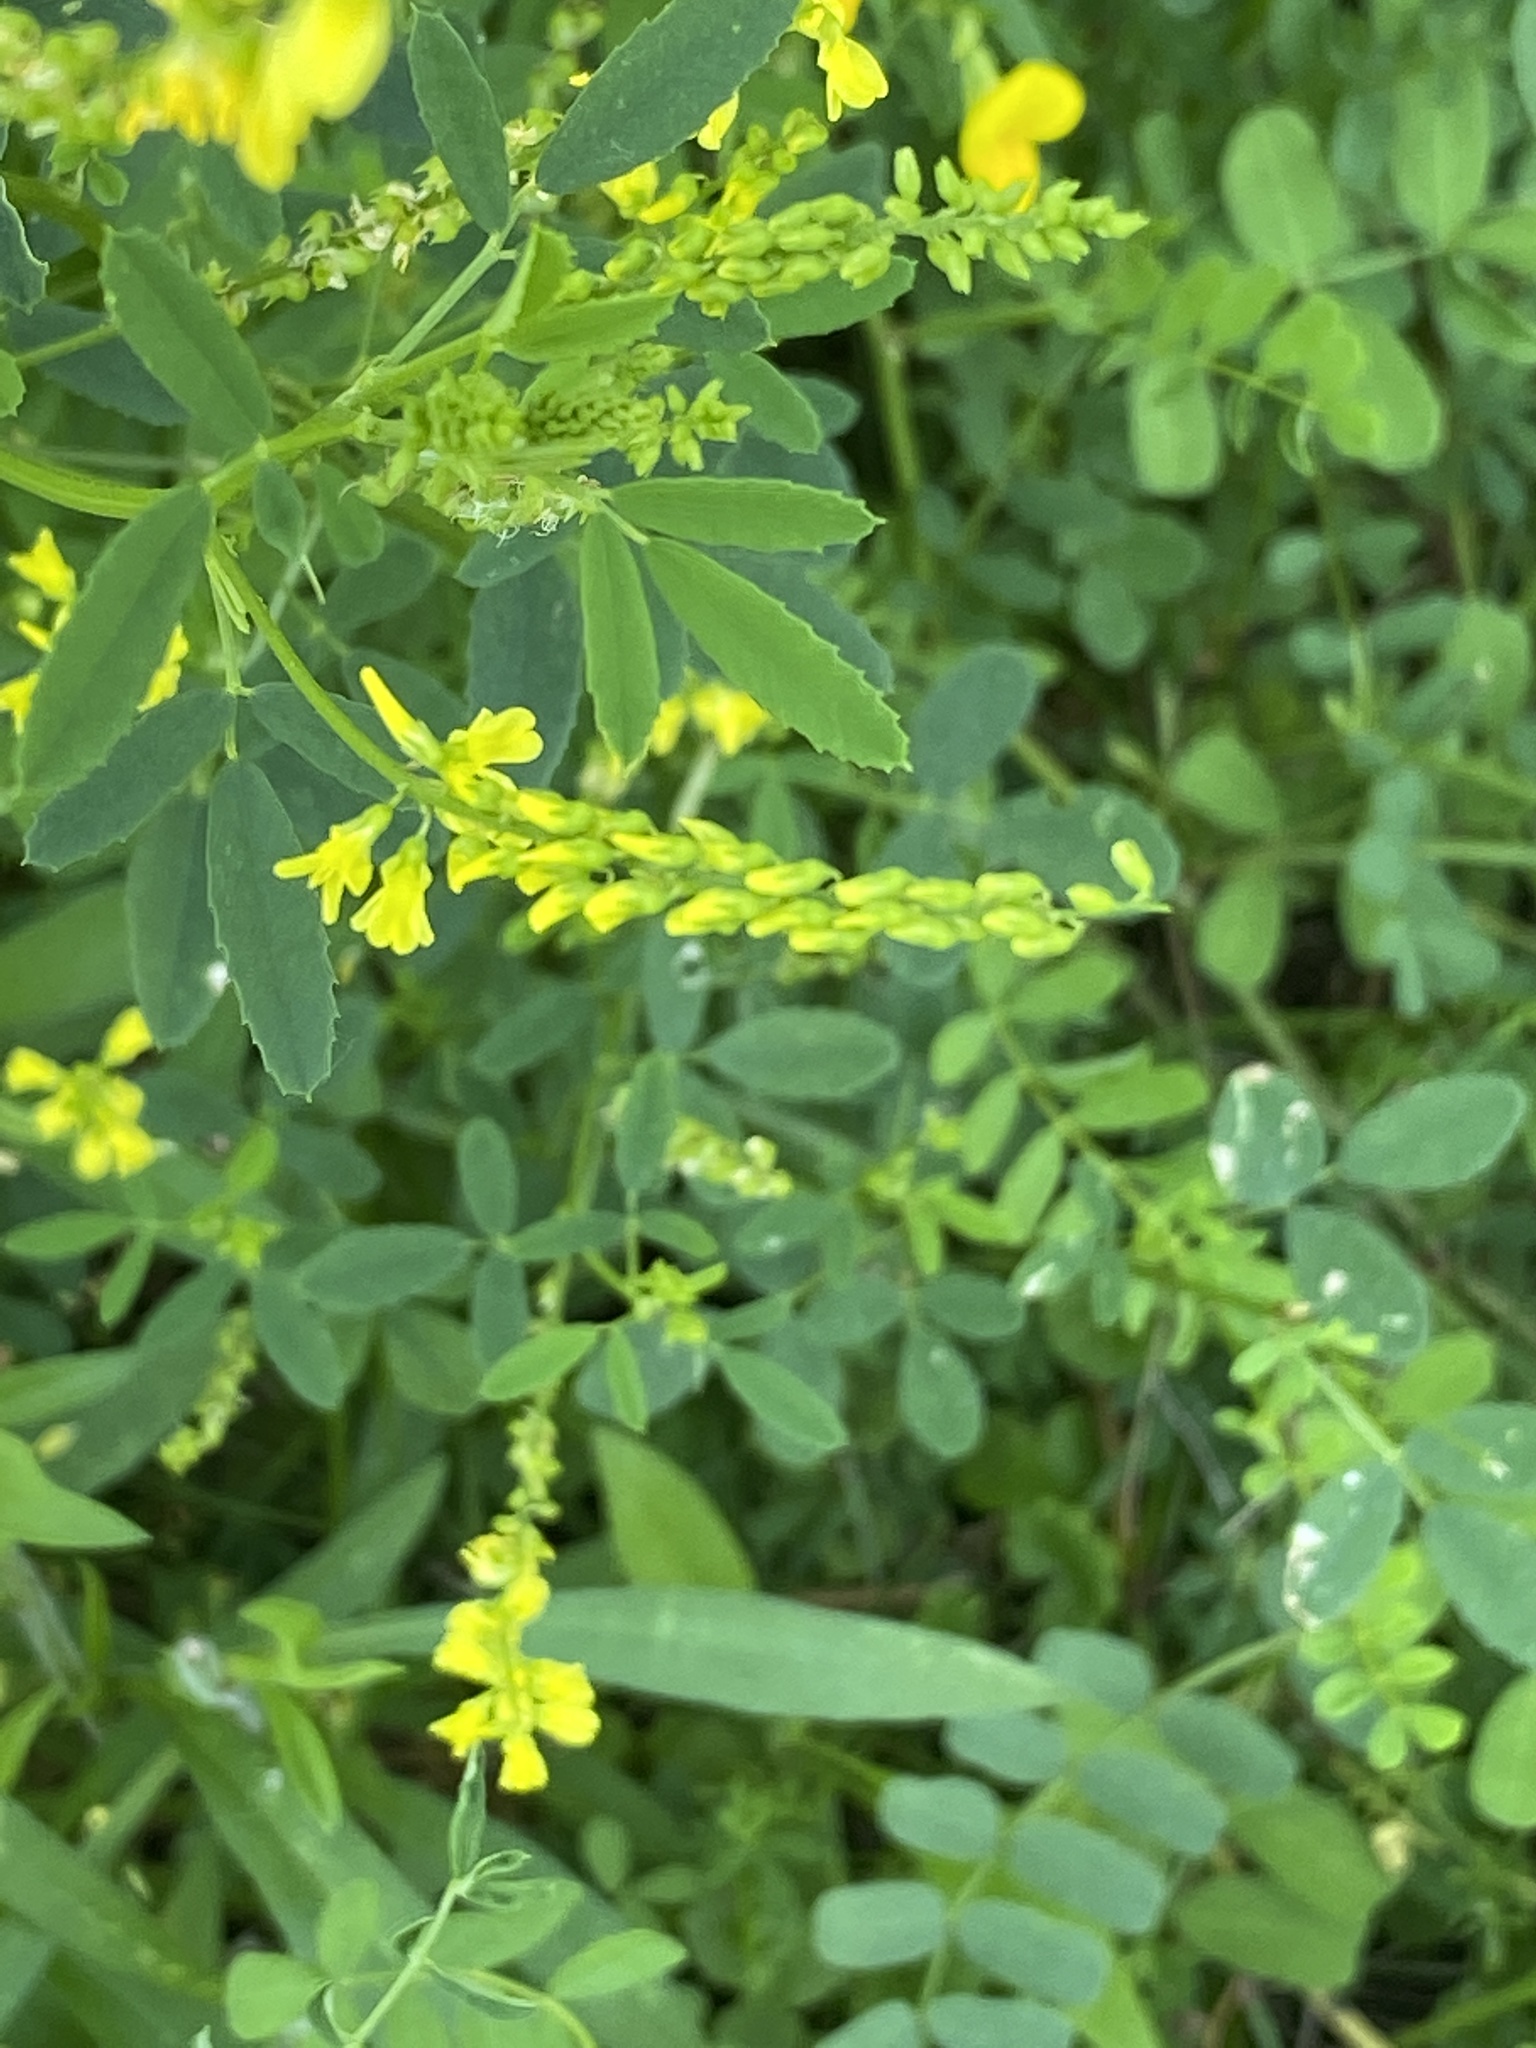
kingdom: Plantae
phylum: Tracheophyta
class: Magnoliopsida
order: Fabales
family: Fabaceae
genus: Melilotus
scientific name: Melilotus officinalis
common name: Sweetclover
